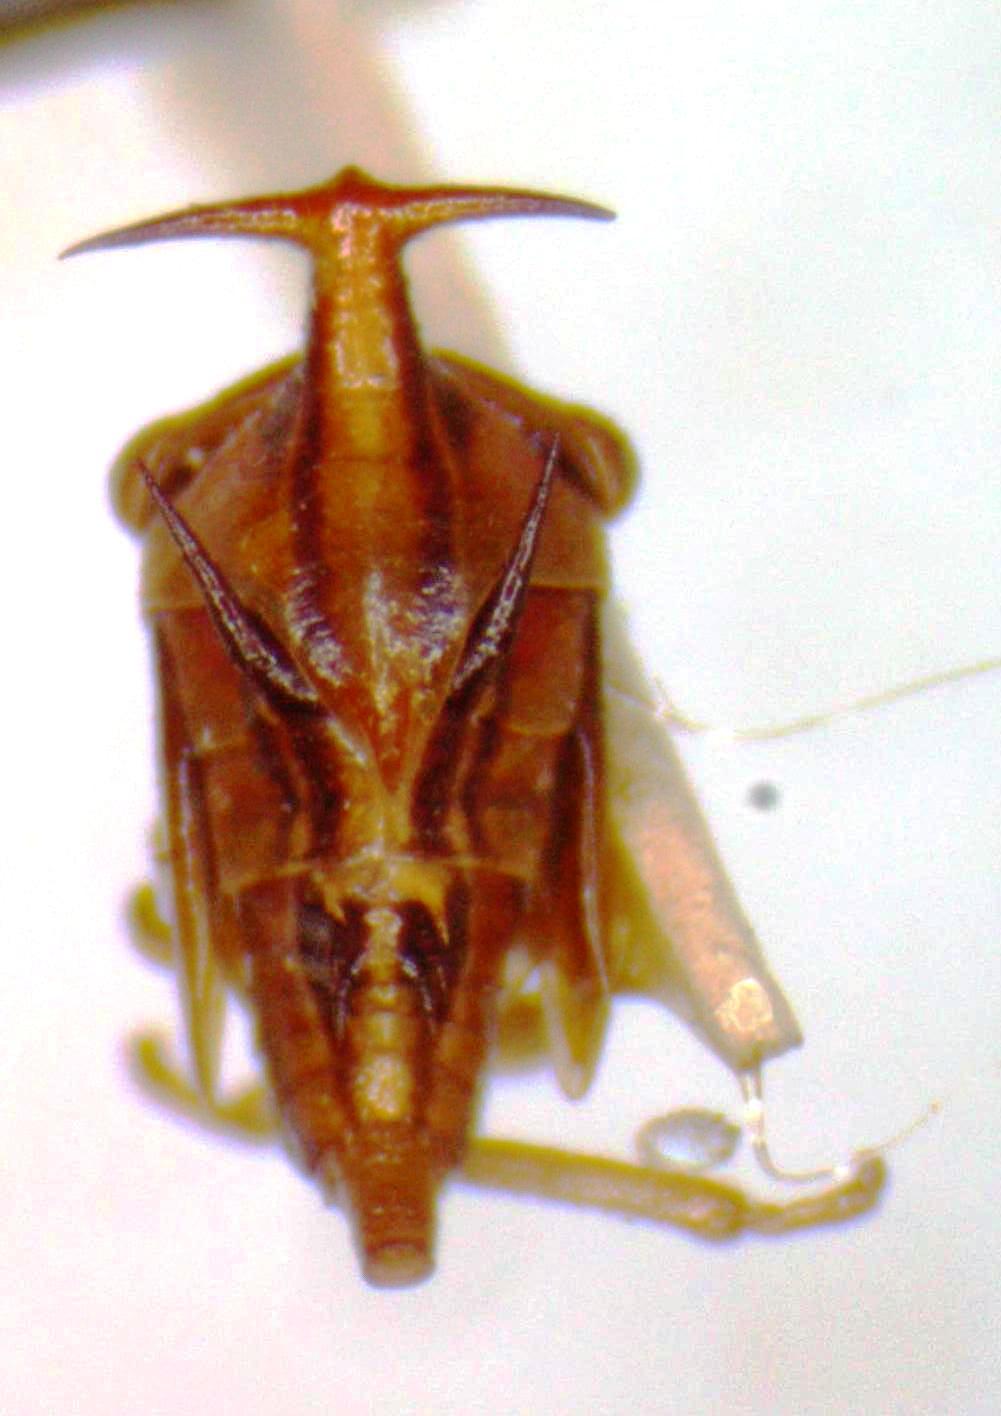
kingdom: Animalia
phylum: Arthropoda
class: Insecta
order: Hemiptera
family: Membracidae
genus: Guayaquila
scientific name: Guayaquila emarginata
